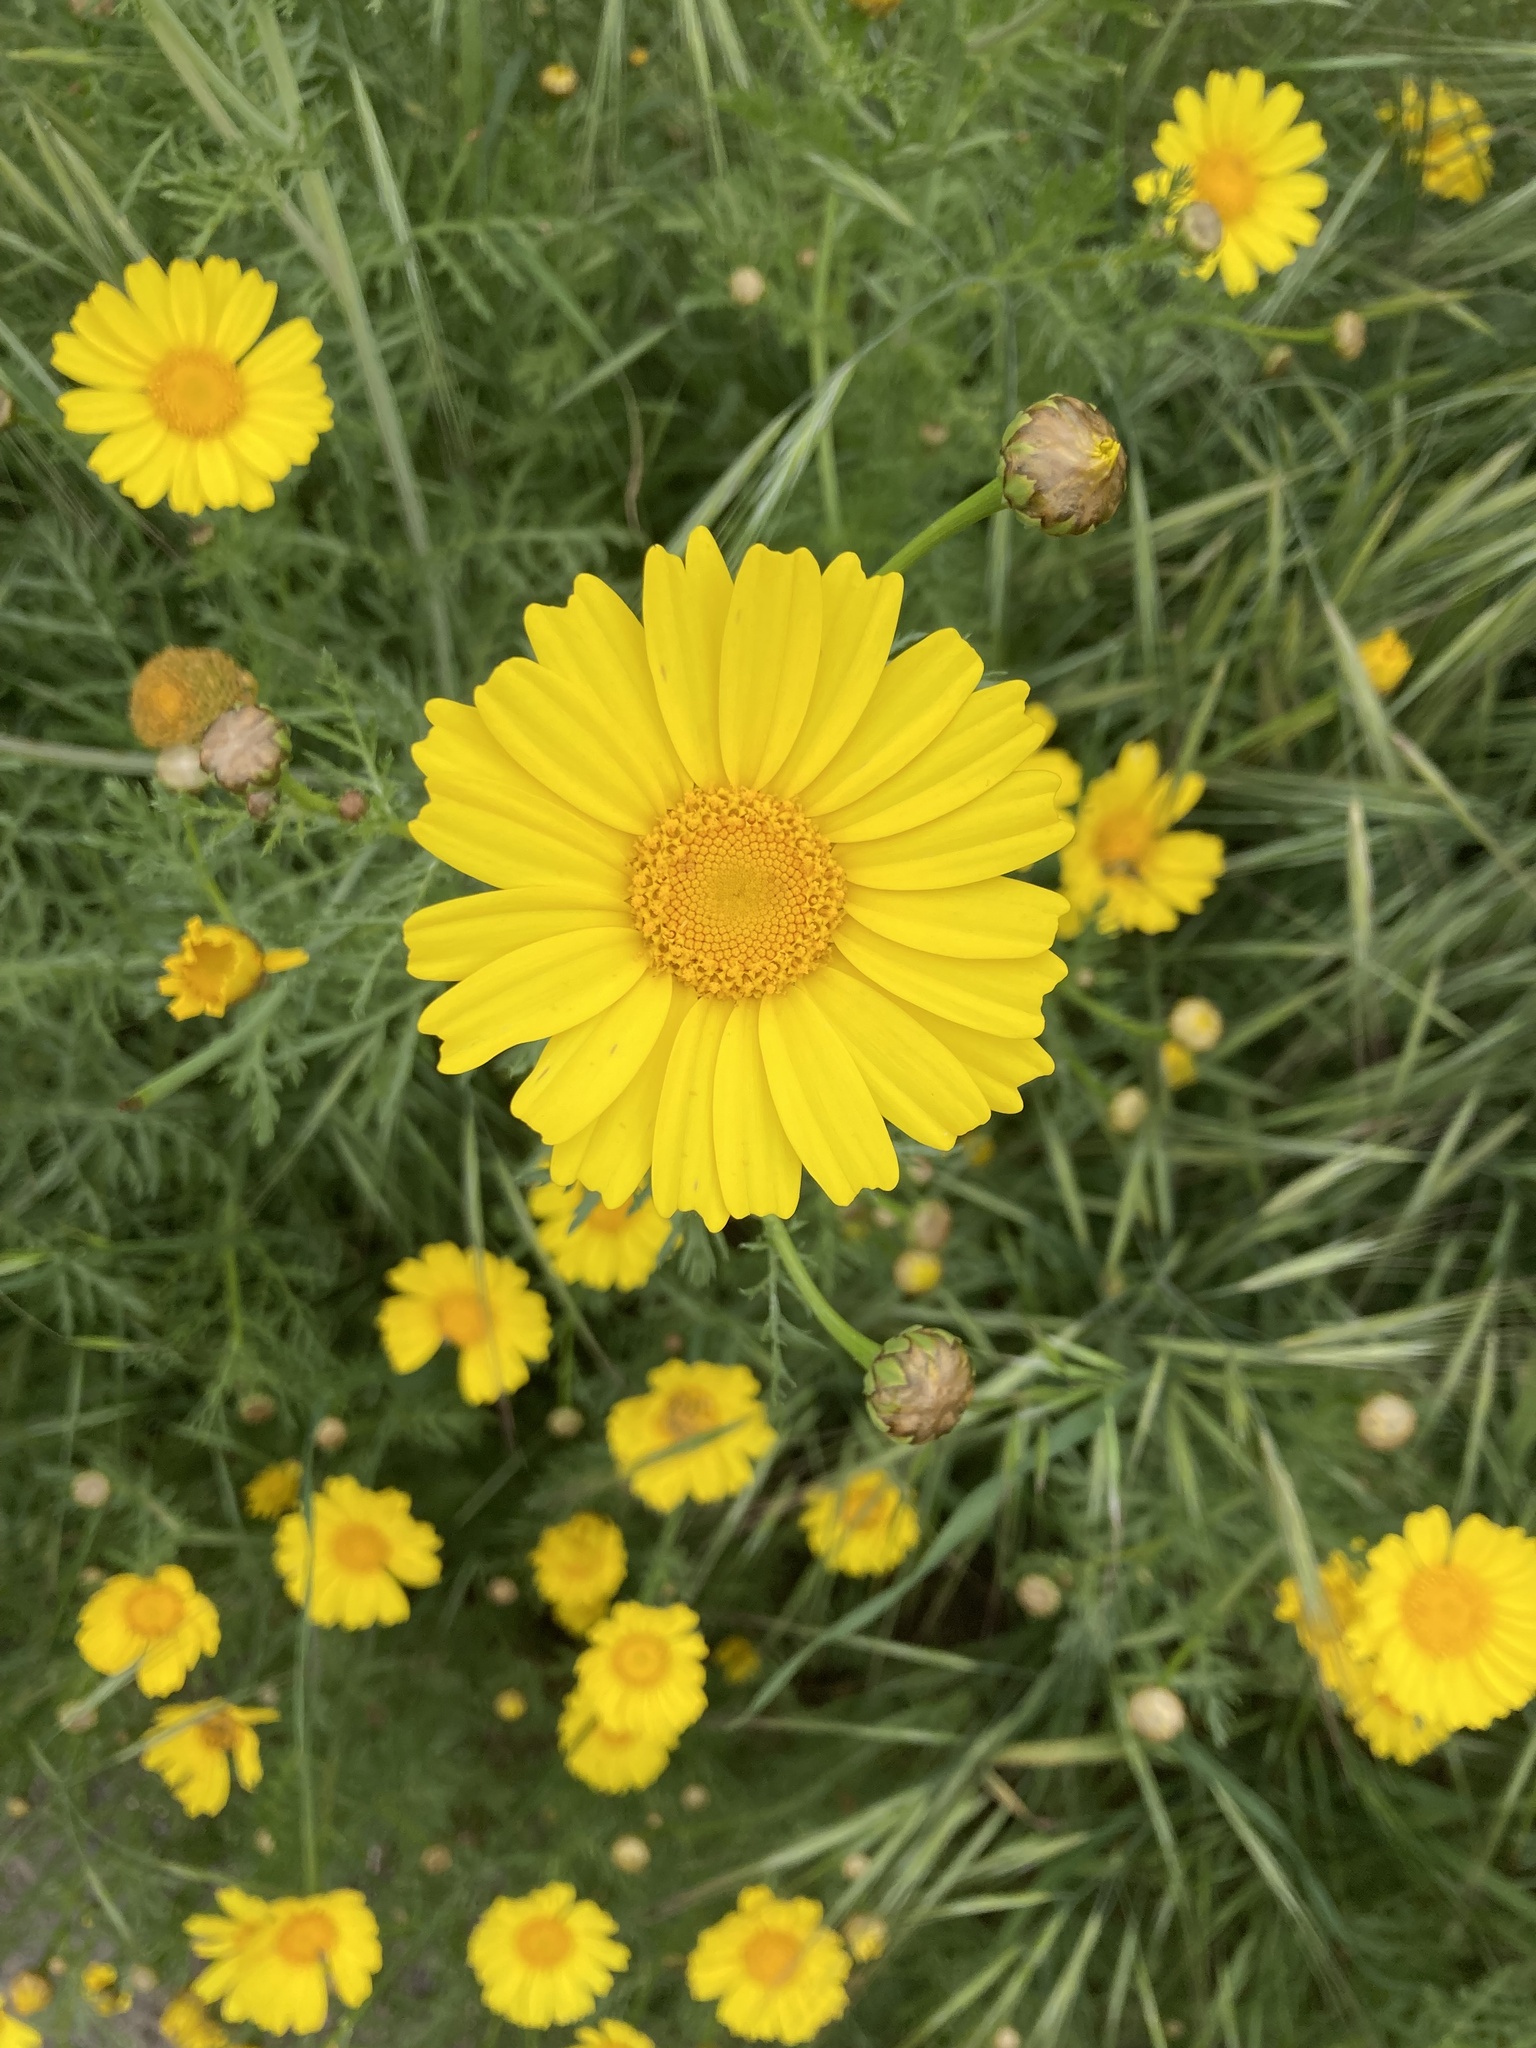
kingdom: Plantae
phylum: Tracheophyta
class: Magnoliopsida
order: Asterales
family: Asteraceae
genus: Glebionis
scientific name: Glebionis coronaria
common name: Crowndaisy
